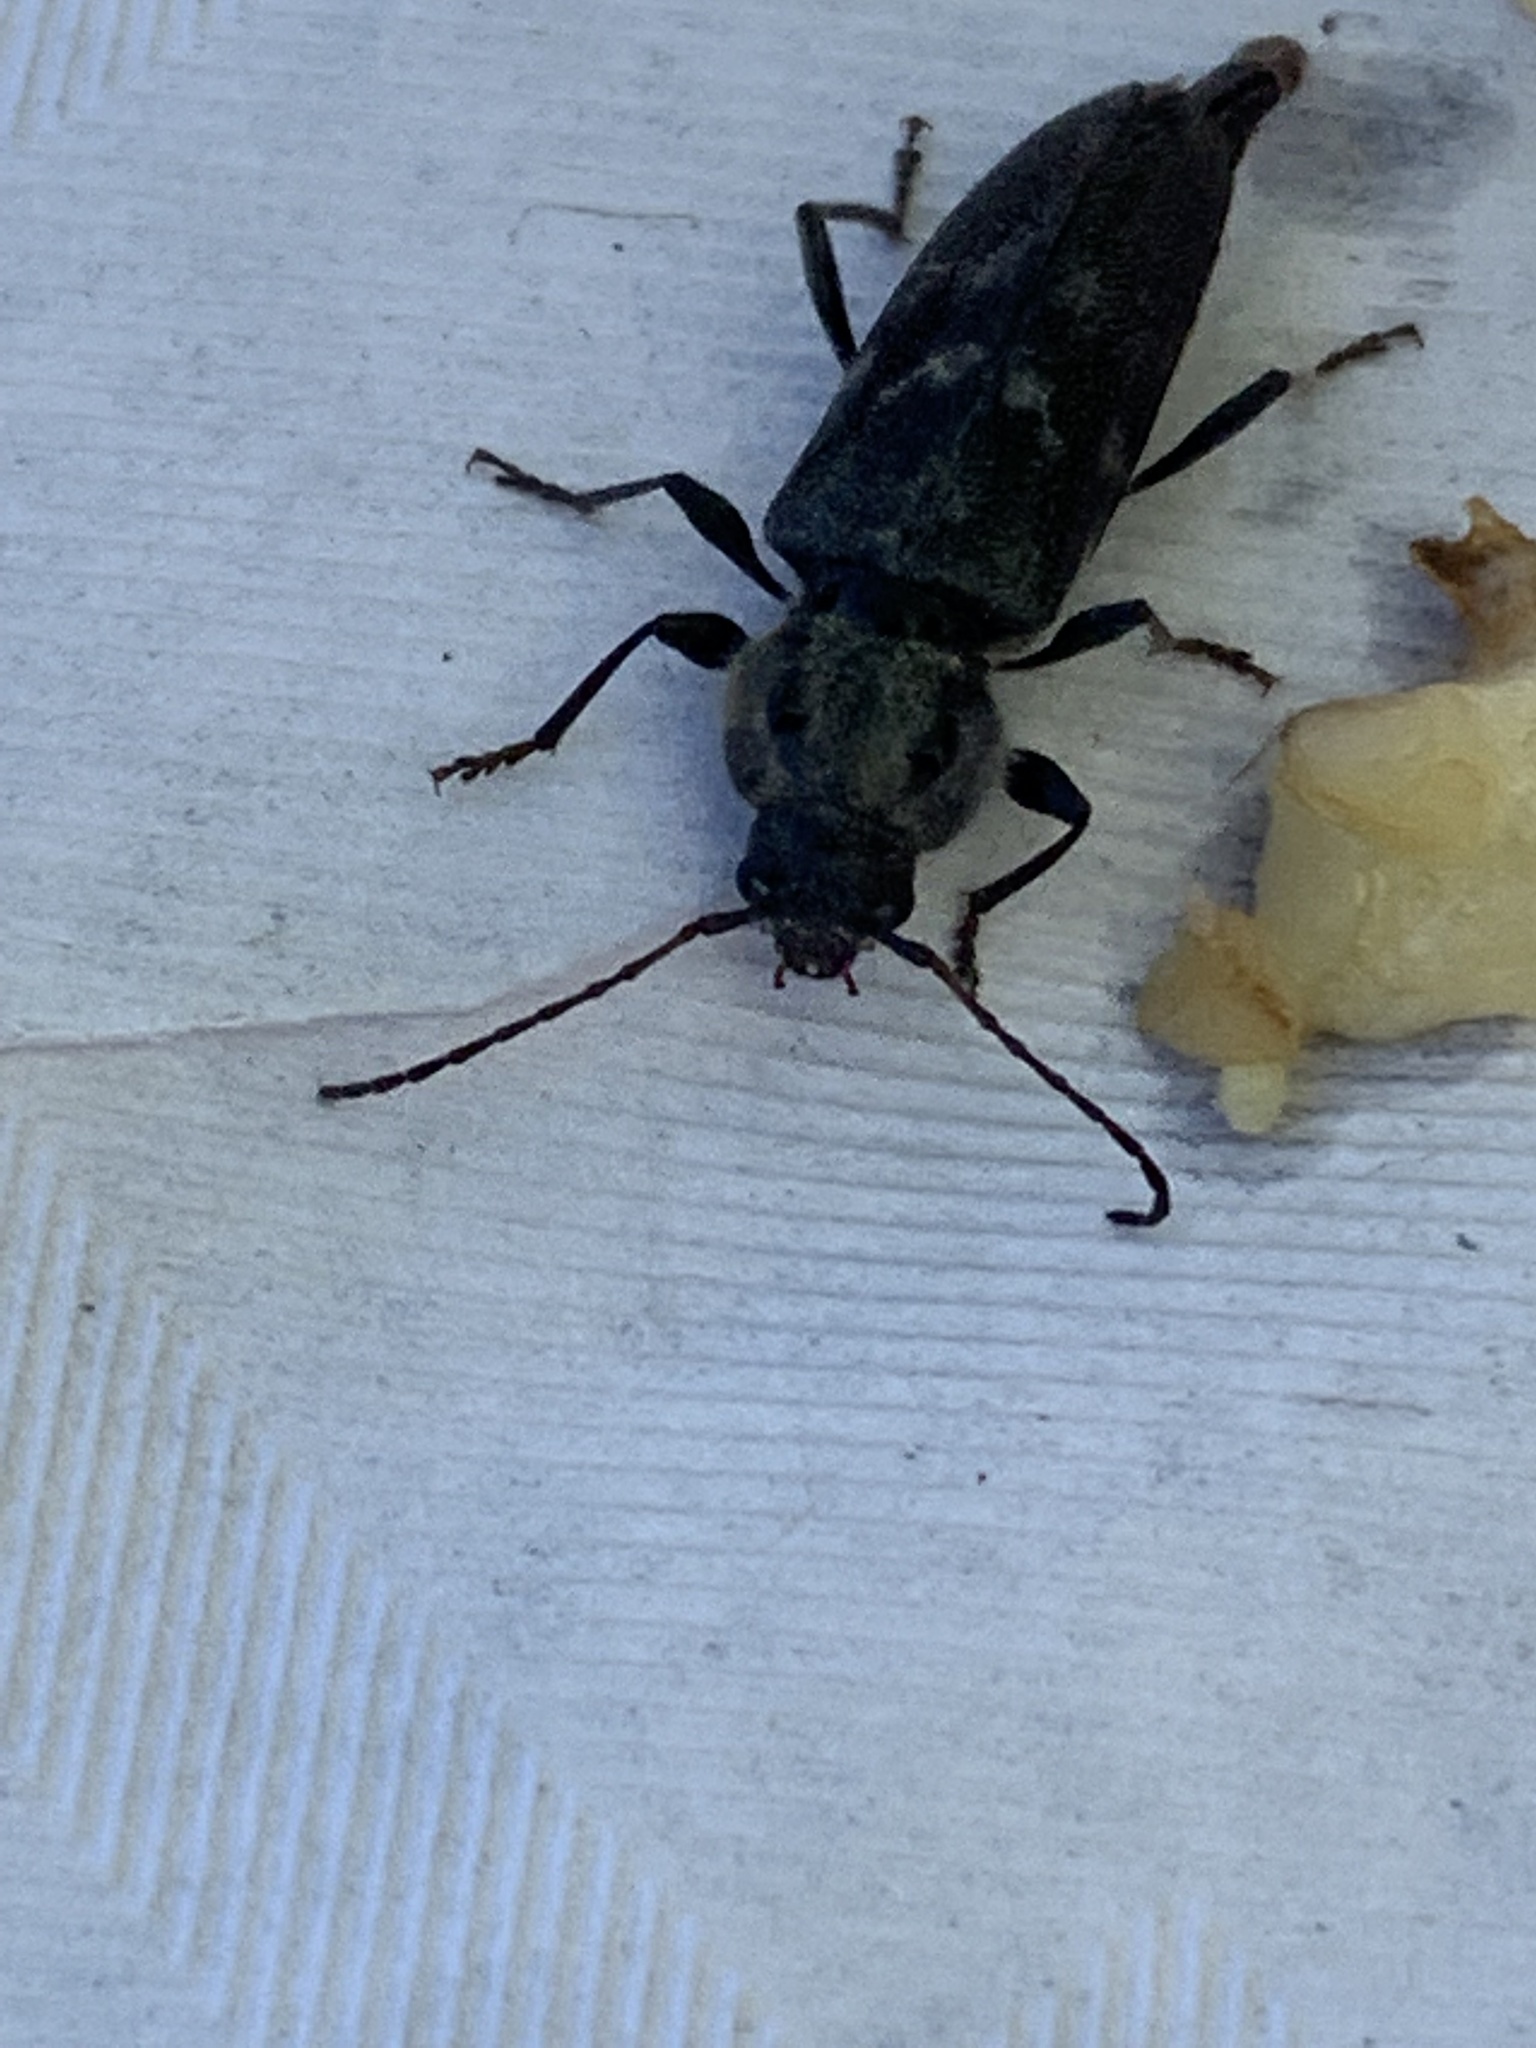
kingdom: Animalia
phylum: Arthropoda
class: Insecta
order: Coleoptera
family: Cerambycidae
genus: Hylotrupes
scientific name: Hylotrupes bajulus
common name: Old house borer
